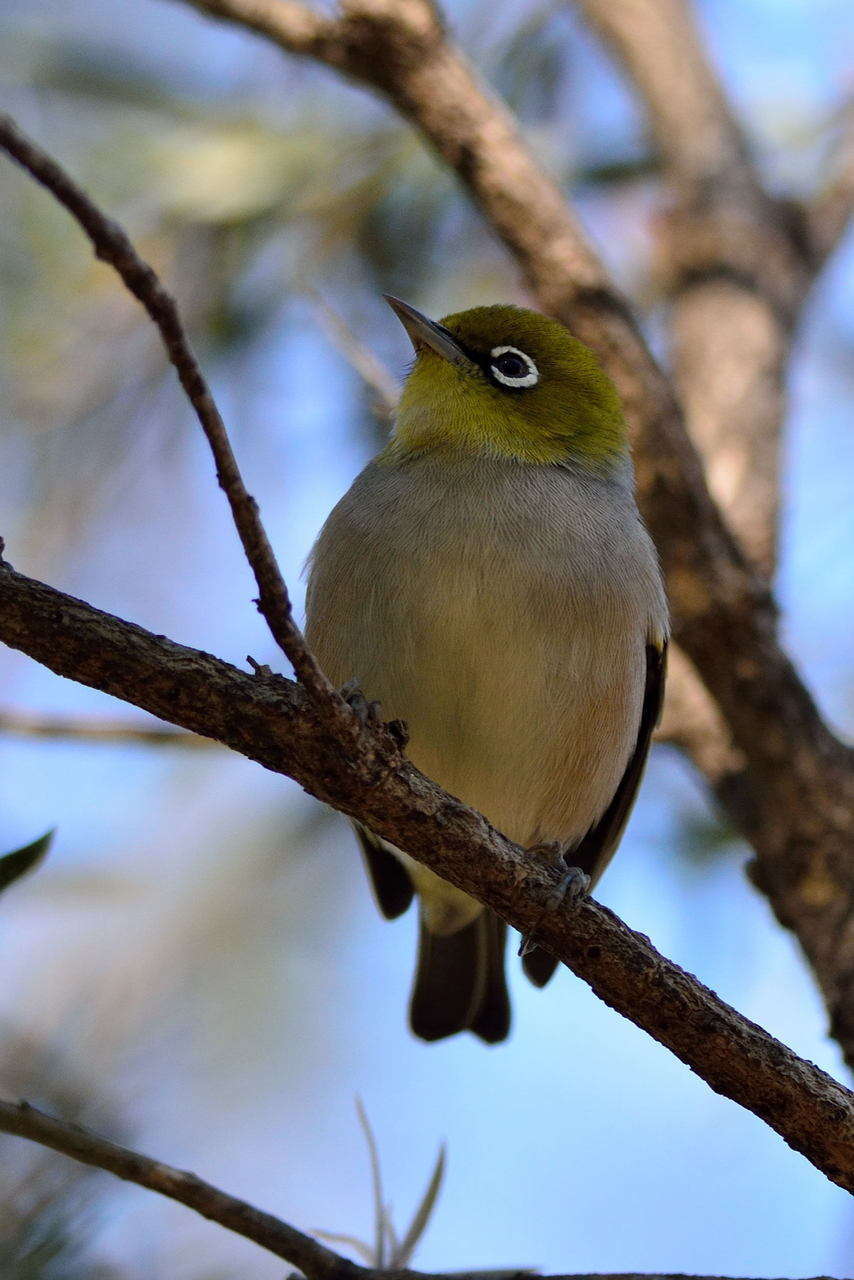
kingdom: Animalia
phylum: Chordata
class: Aves
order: Passeriformes
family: Zosteropidae
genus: Zosterops
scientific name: Zosterops lateralis
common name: Silvereye
